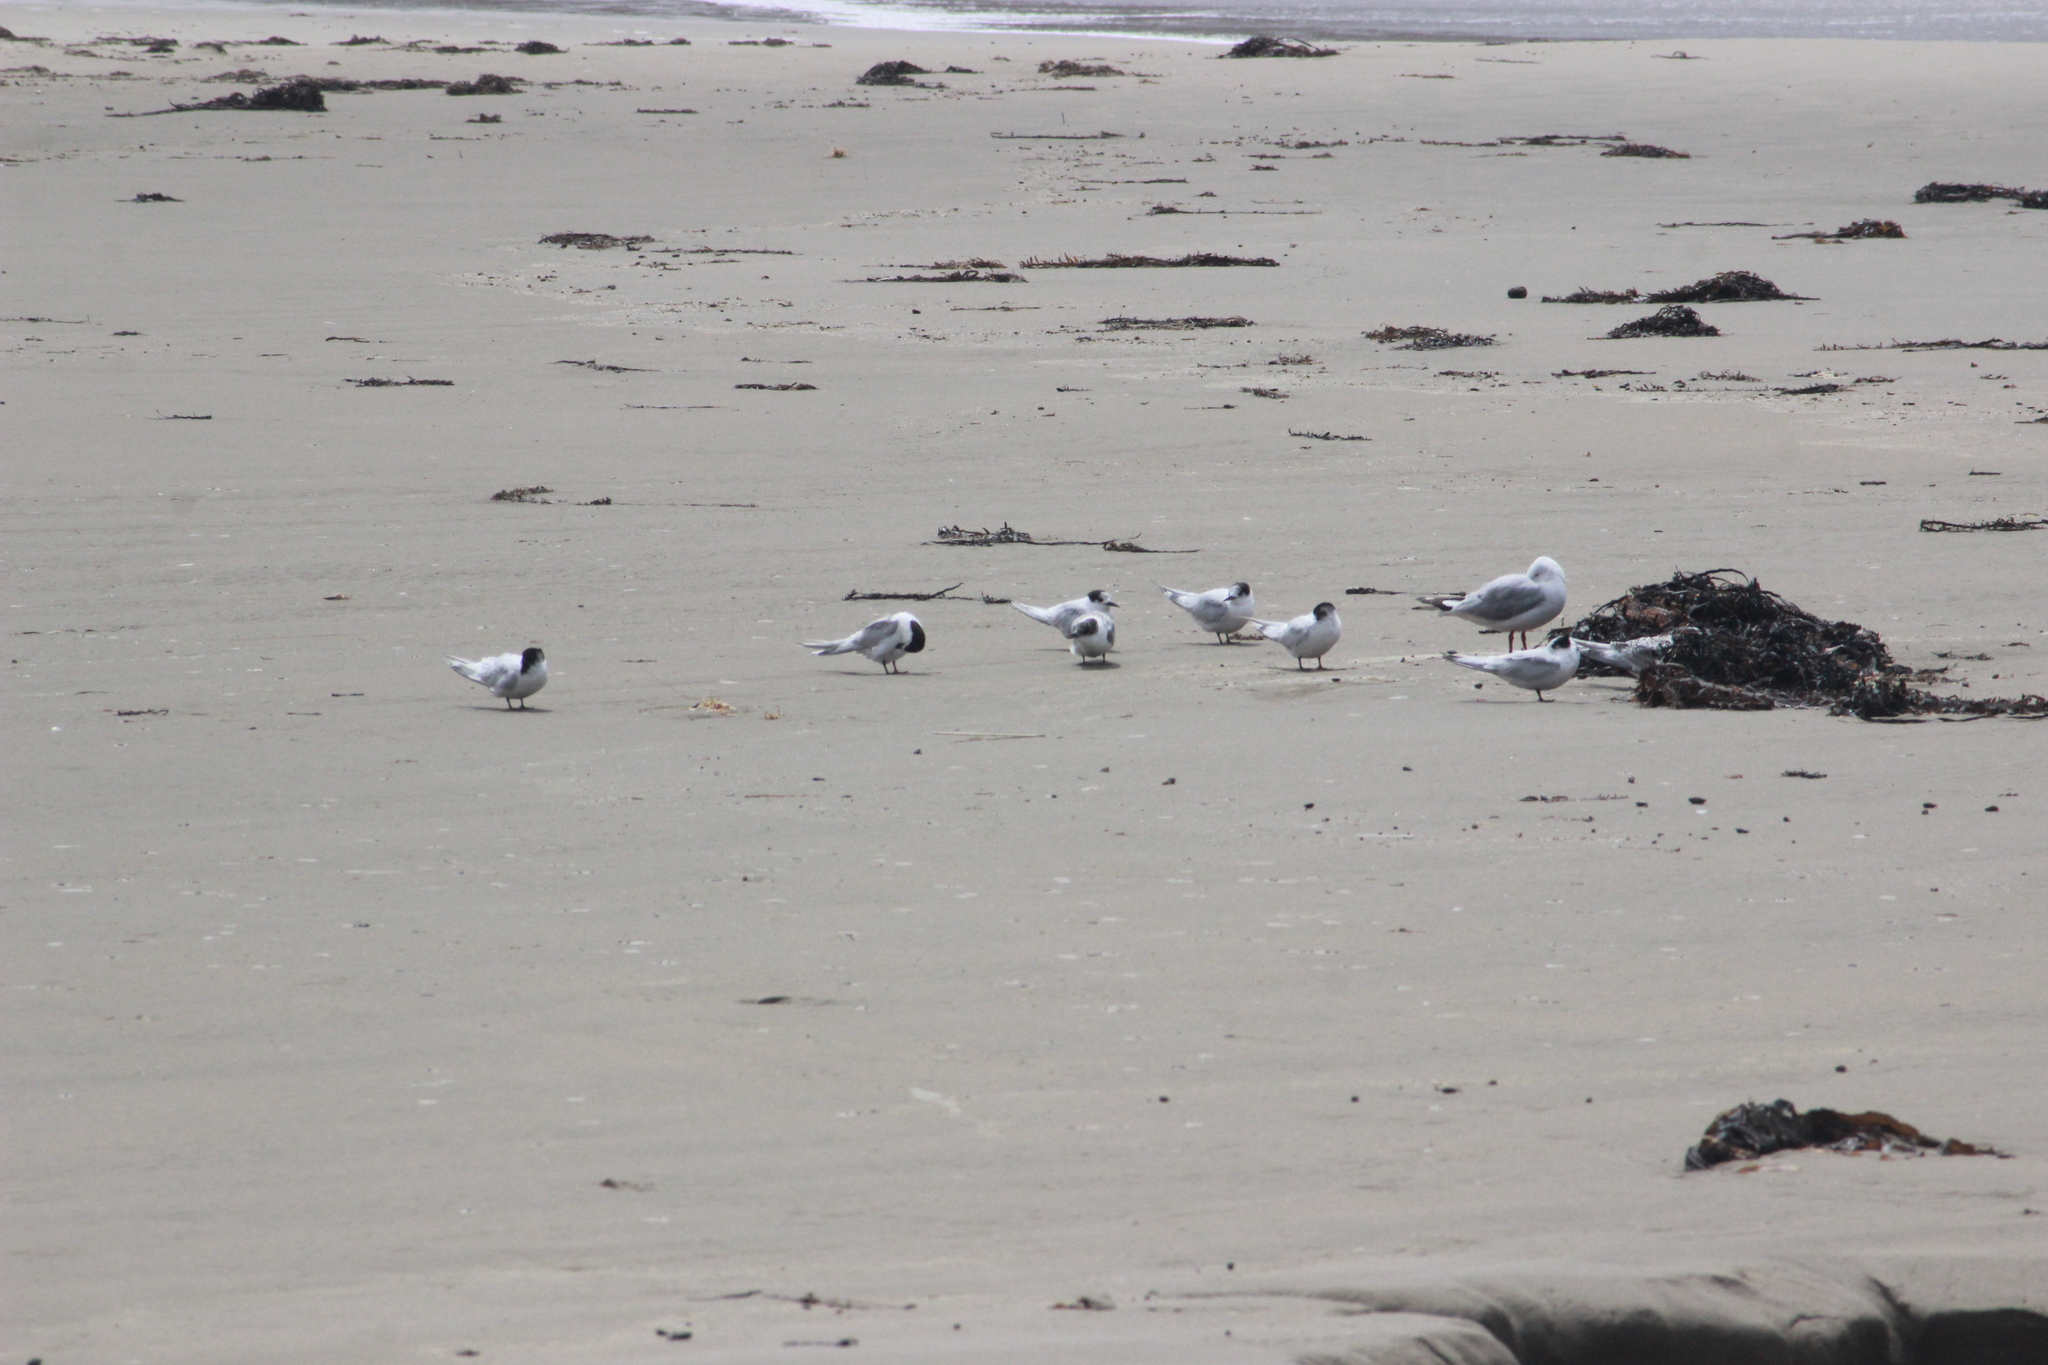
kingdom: Animalia
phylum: Chordata
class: Aves
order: Charadriiformes
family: Laridae
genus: Sterna
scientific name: Sterna striata
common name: White-fronted tern
